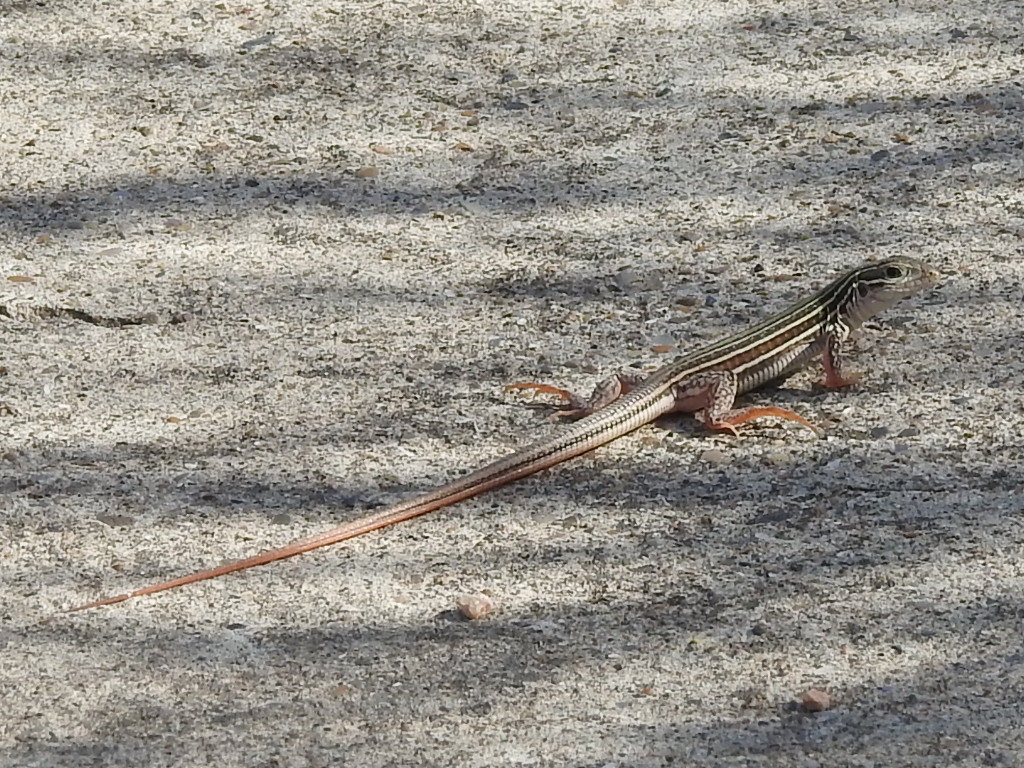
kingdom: Animalia
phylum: Chordata
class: Squamata
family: Teiidae
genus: Aspidoscelis
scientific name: Aspidoscelis gularis
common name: Eastern spotted whiptail
